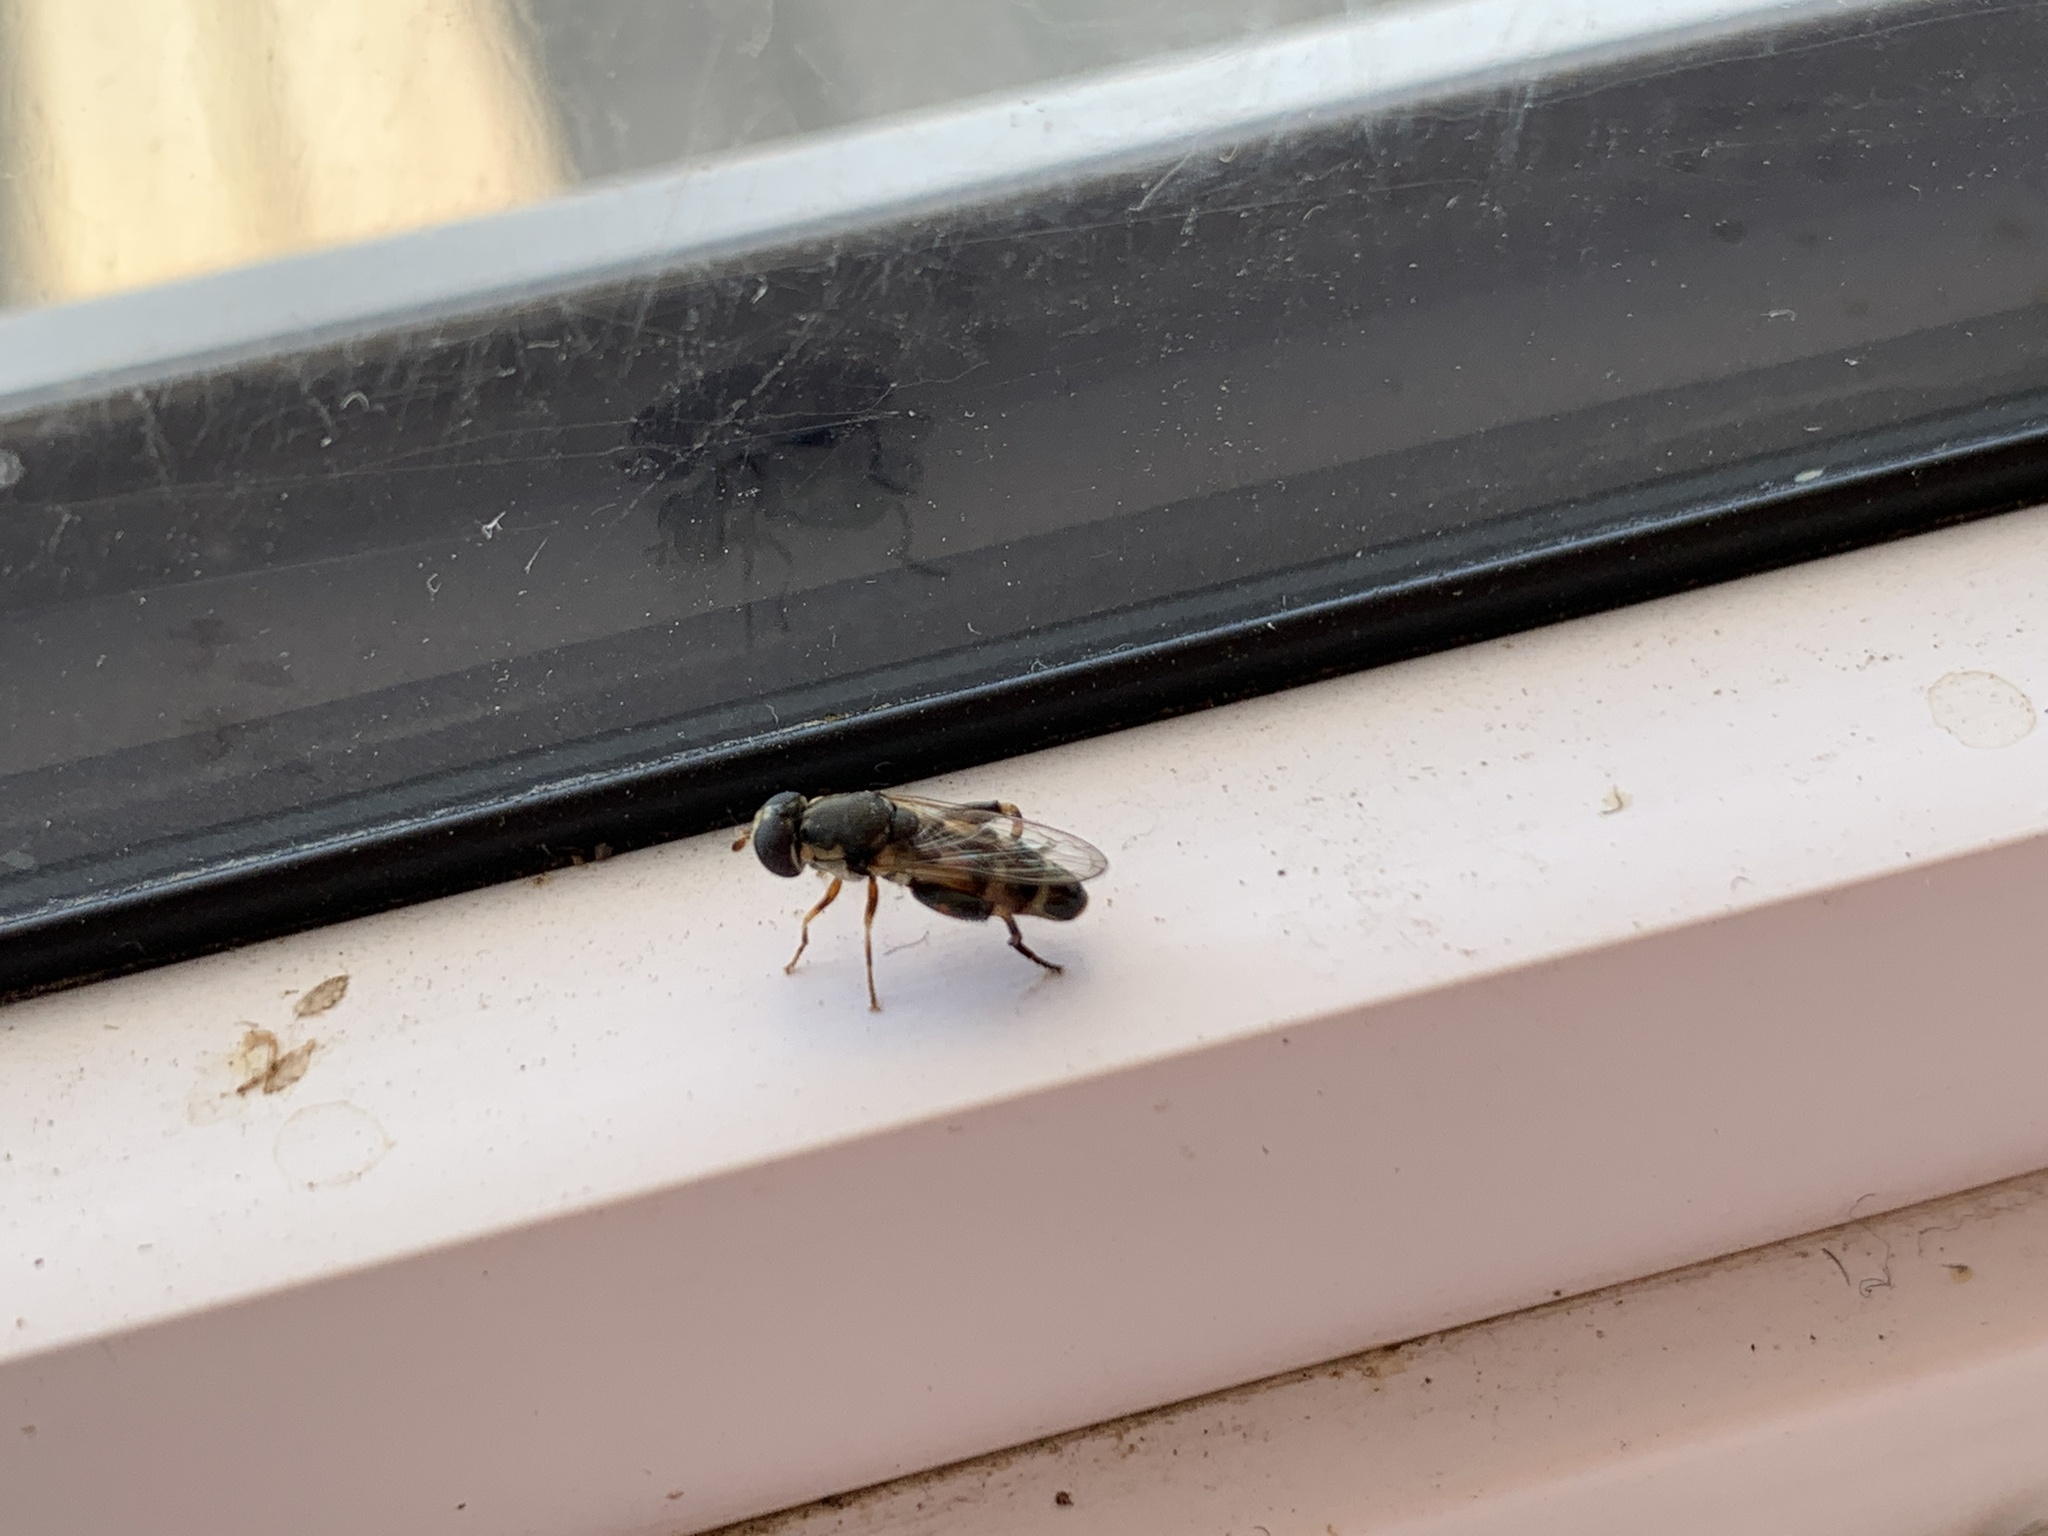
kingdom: Animalia
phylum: Arthropoda
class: Insecta
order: Diptera
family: Syrphidae
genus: Syritta
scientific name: Syritta pipiens
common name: Hover fly
